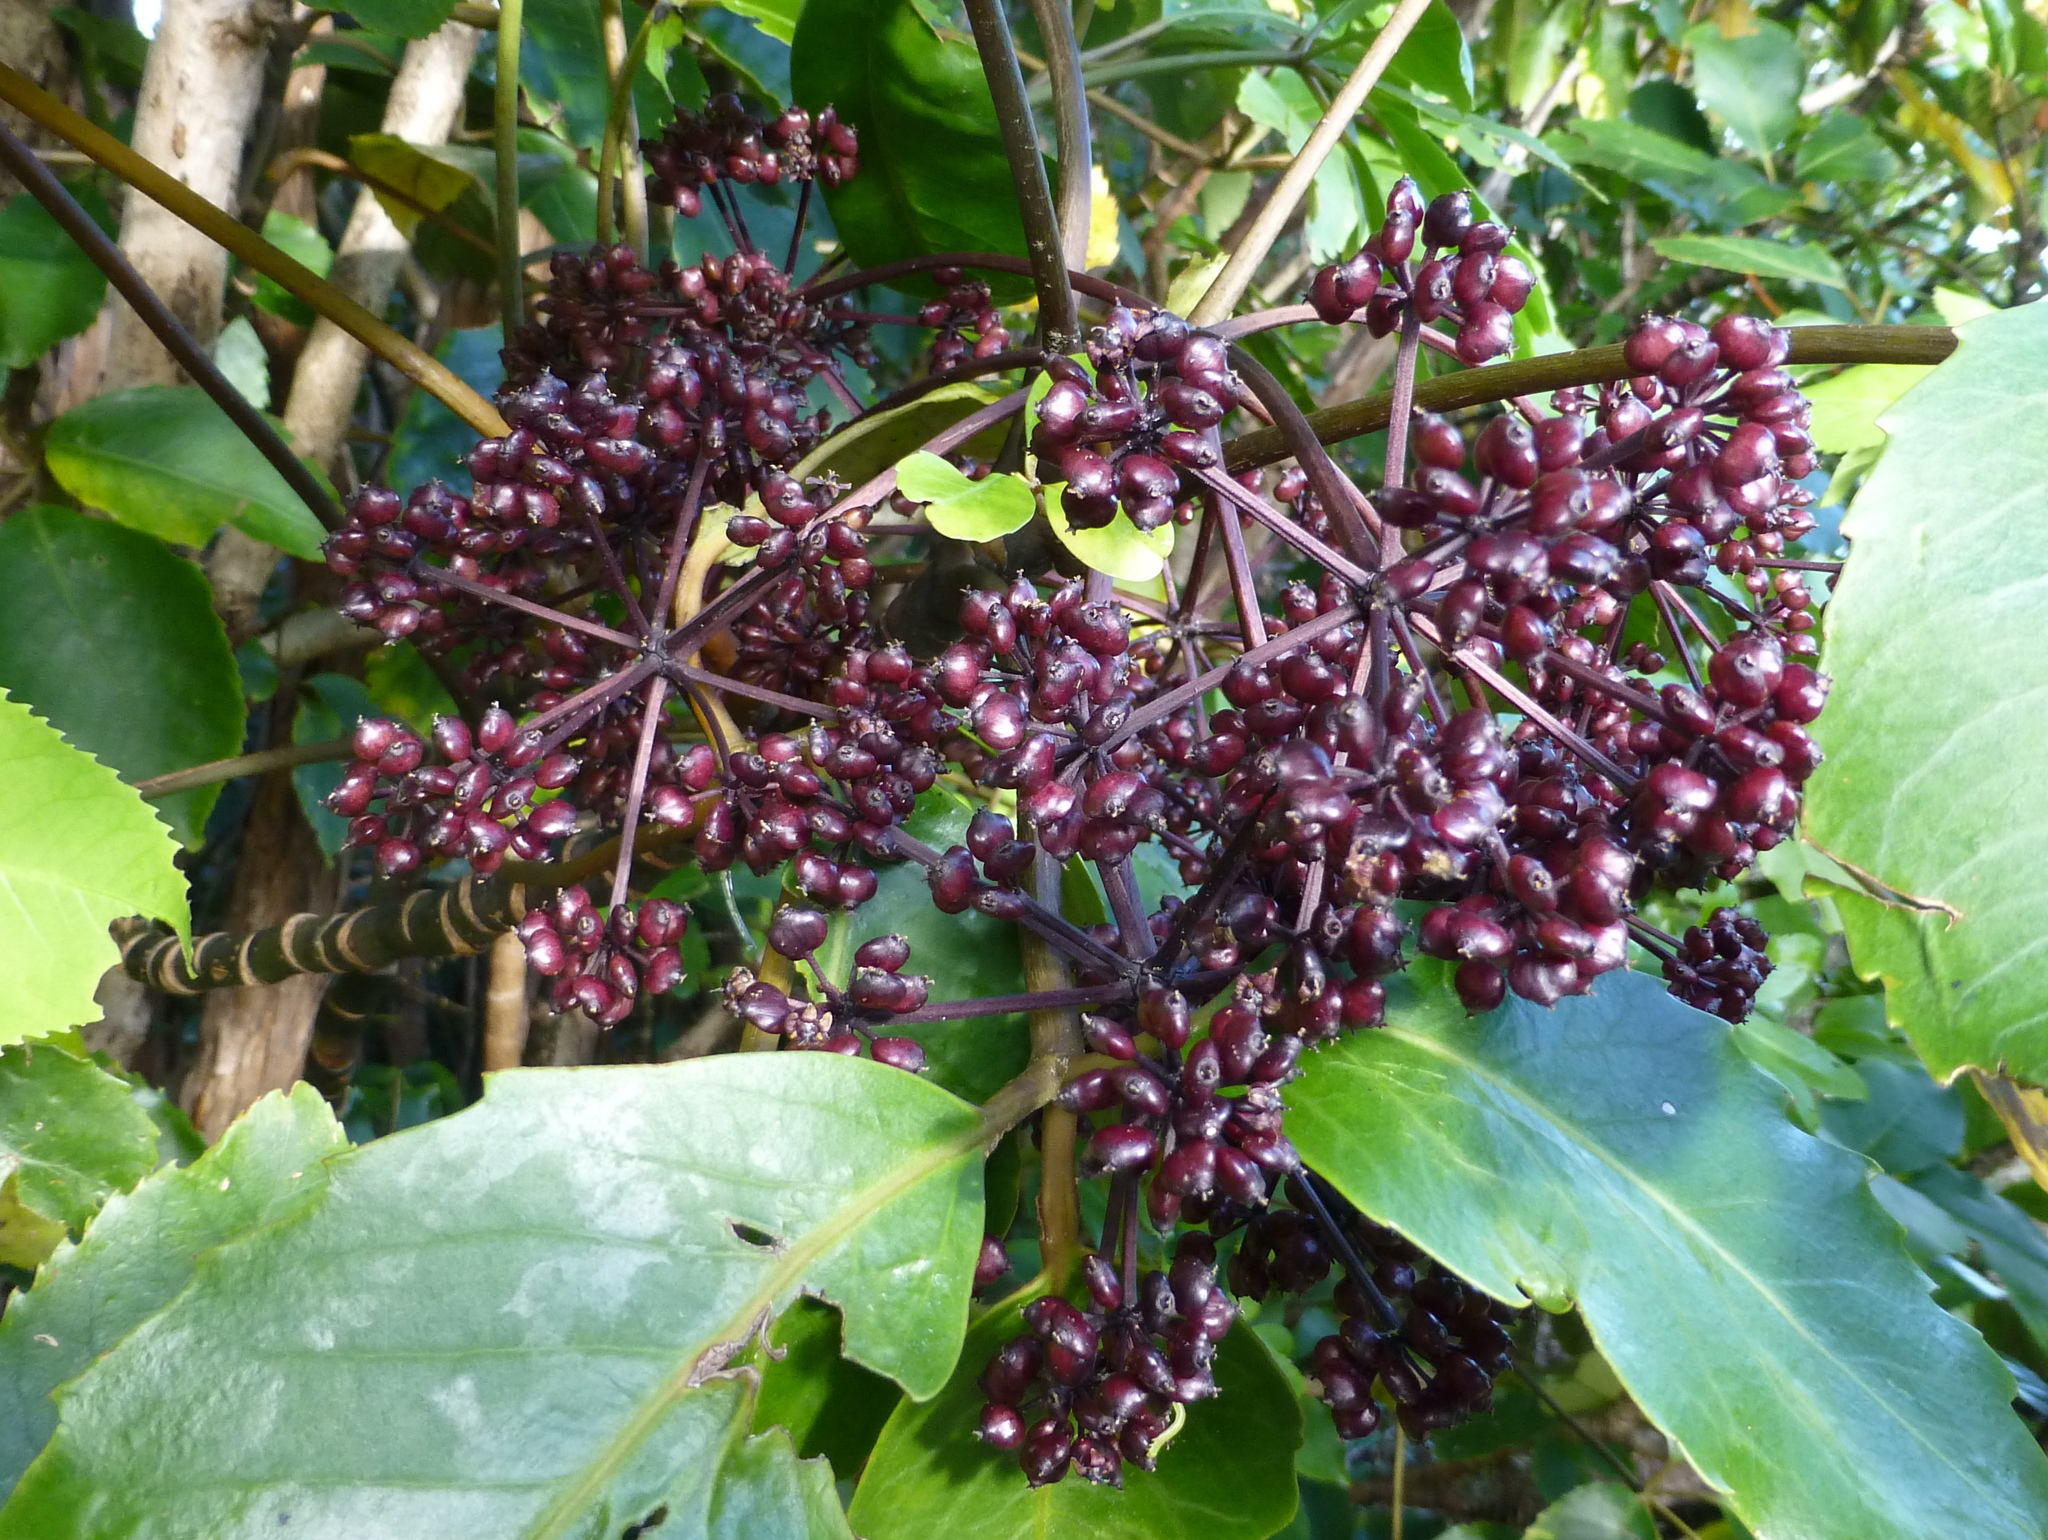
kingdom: Plantae
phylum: Tracheophyta
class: Magnoliopsida
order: Apiales
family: Araliaceae
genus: Neopanax
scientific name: Neopanax arboreus
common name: Five-fingers
